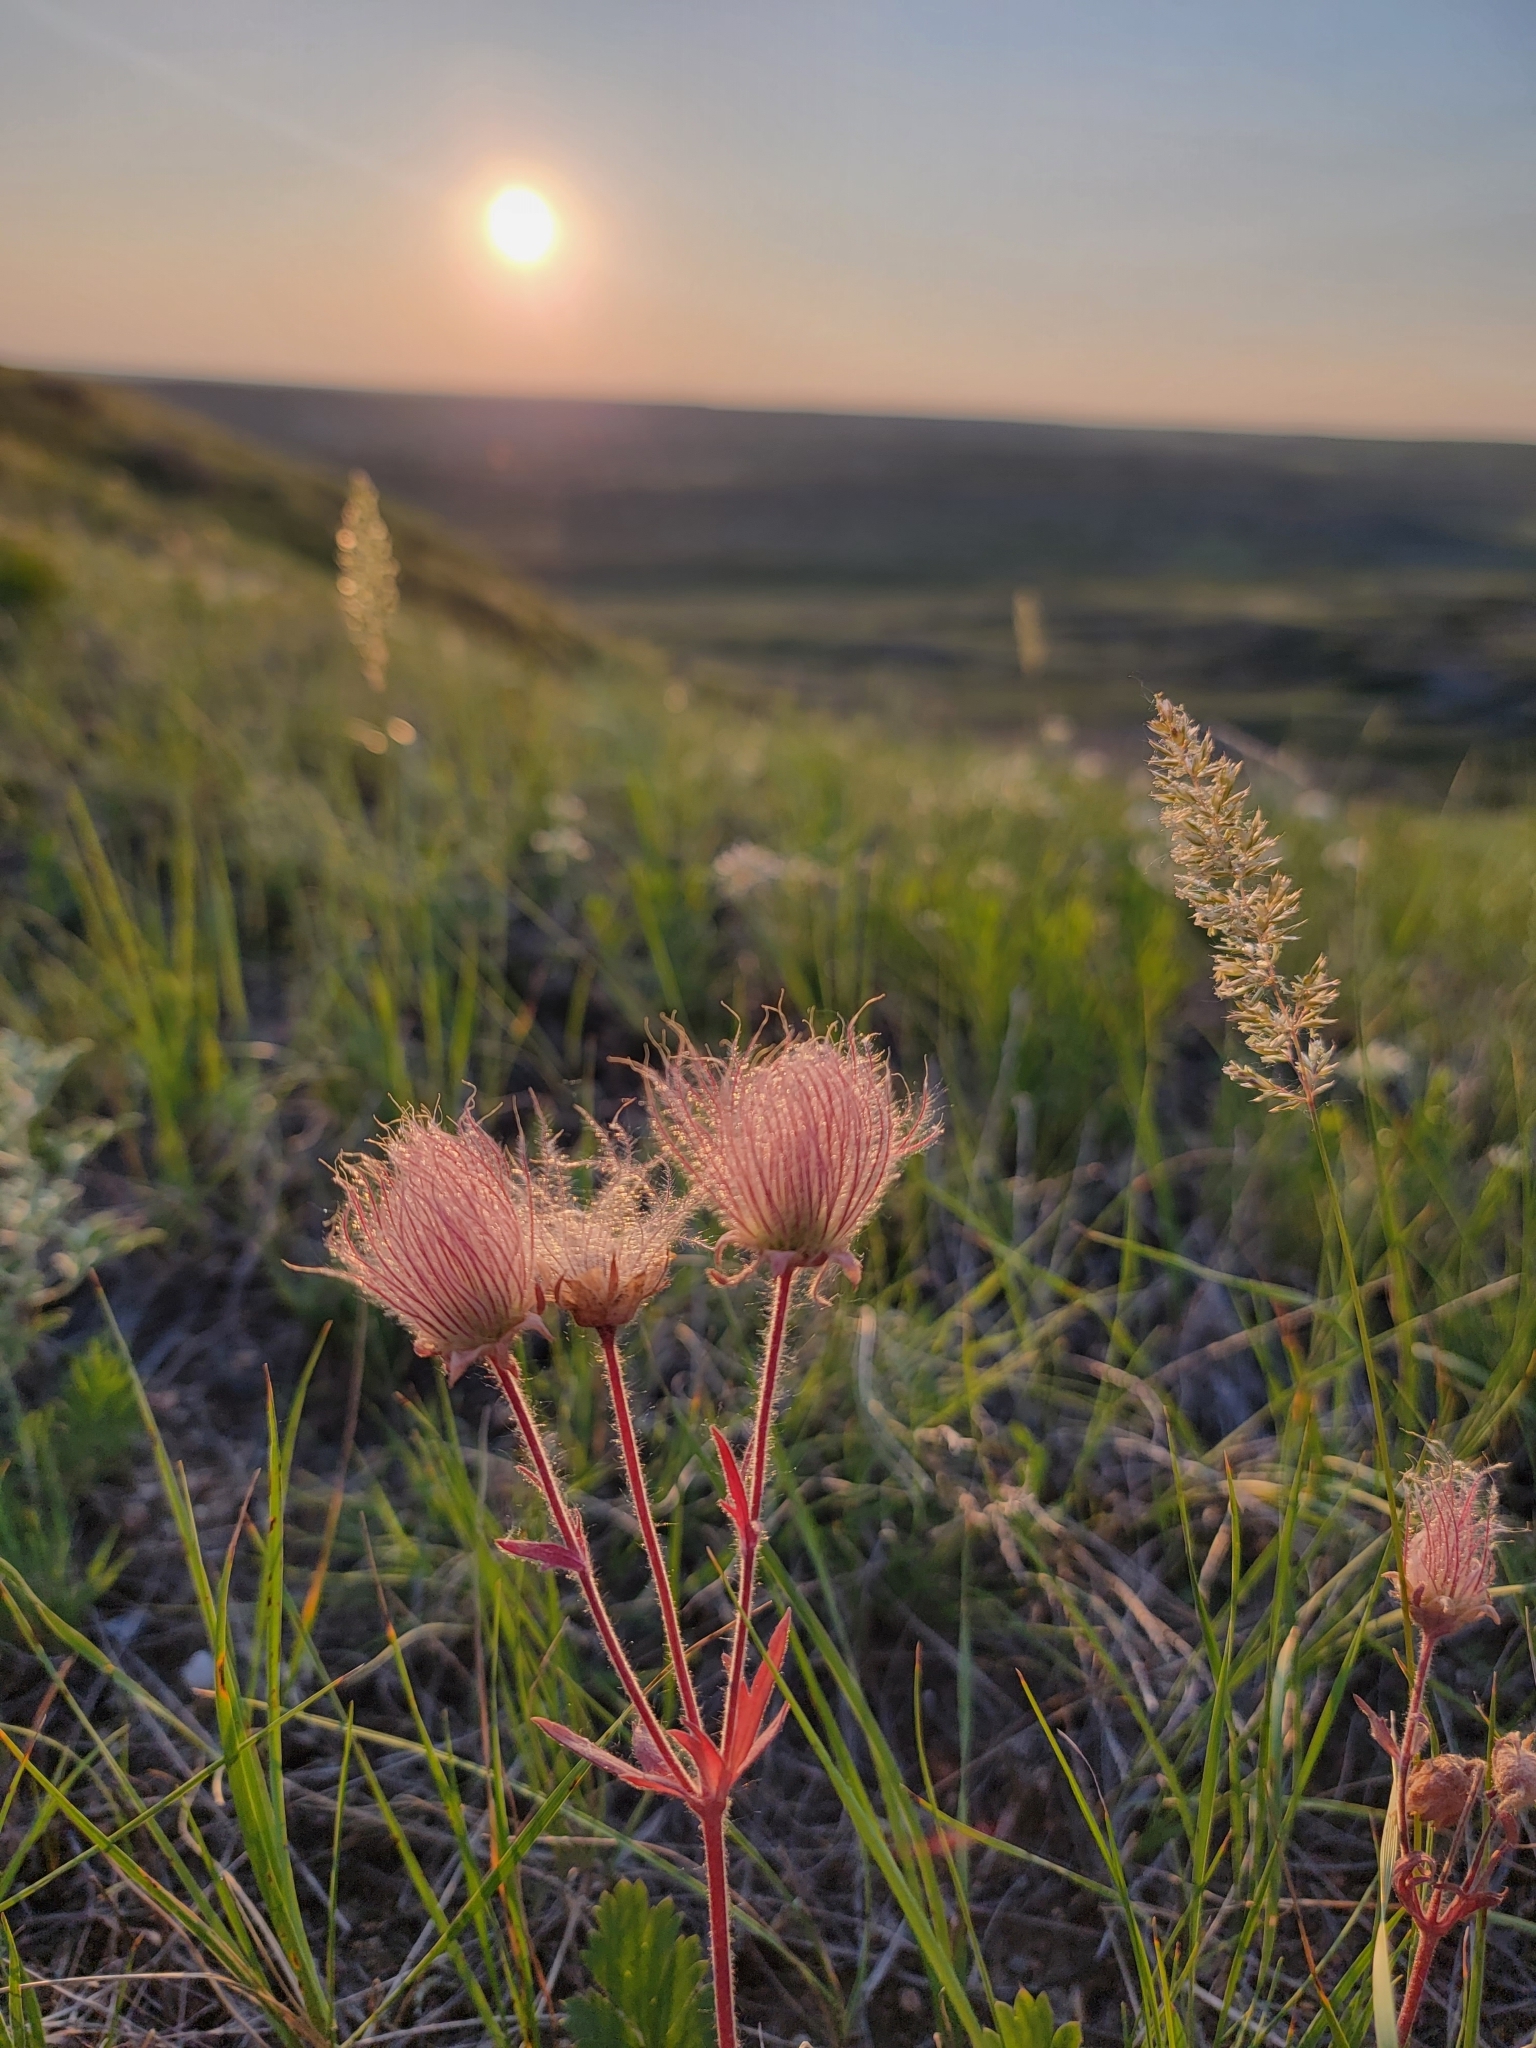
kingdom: Plantae
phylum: Tracheophyta
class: Magnoliopsida
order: Rosales
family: Rosaceae
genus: Geum
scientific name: Geum triflorum
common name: Old man's whiskers
